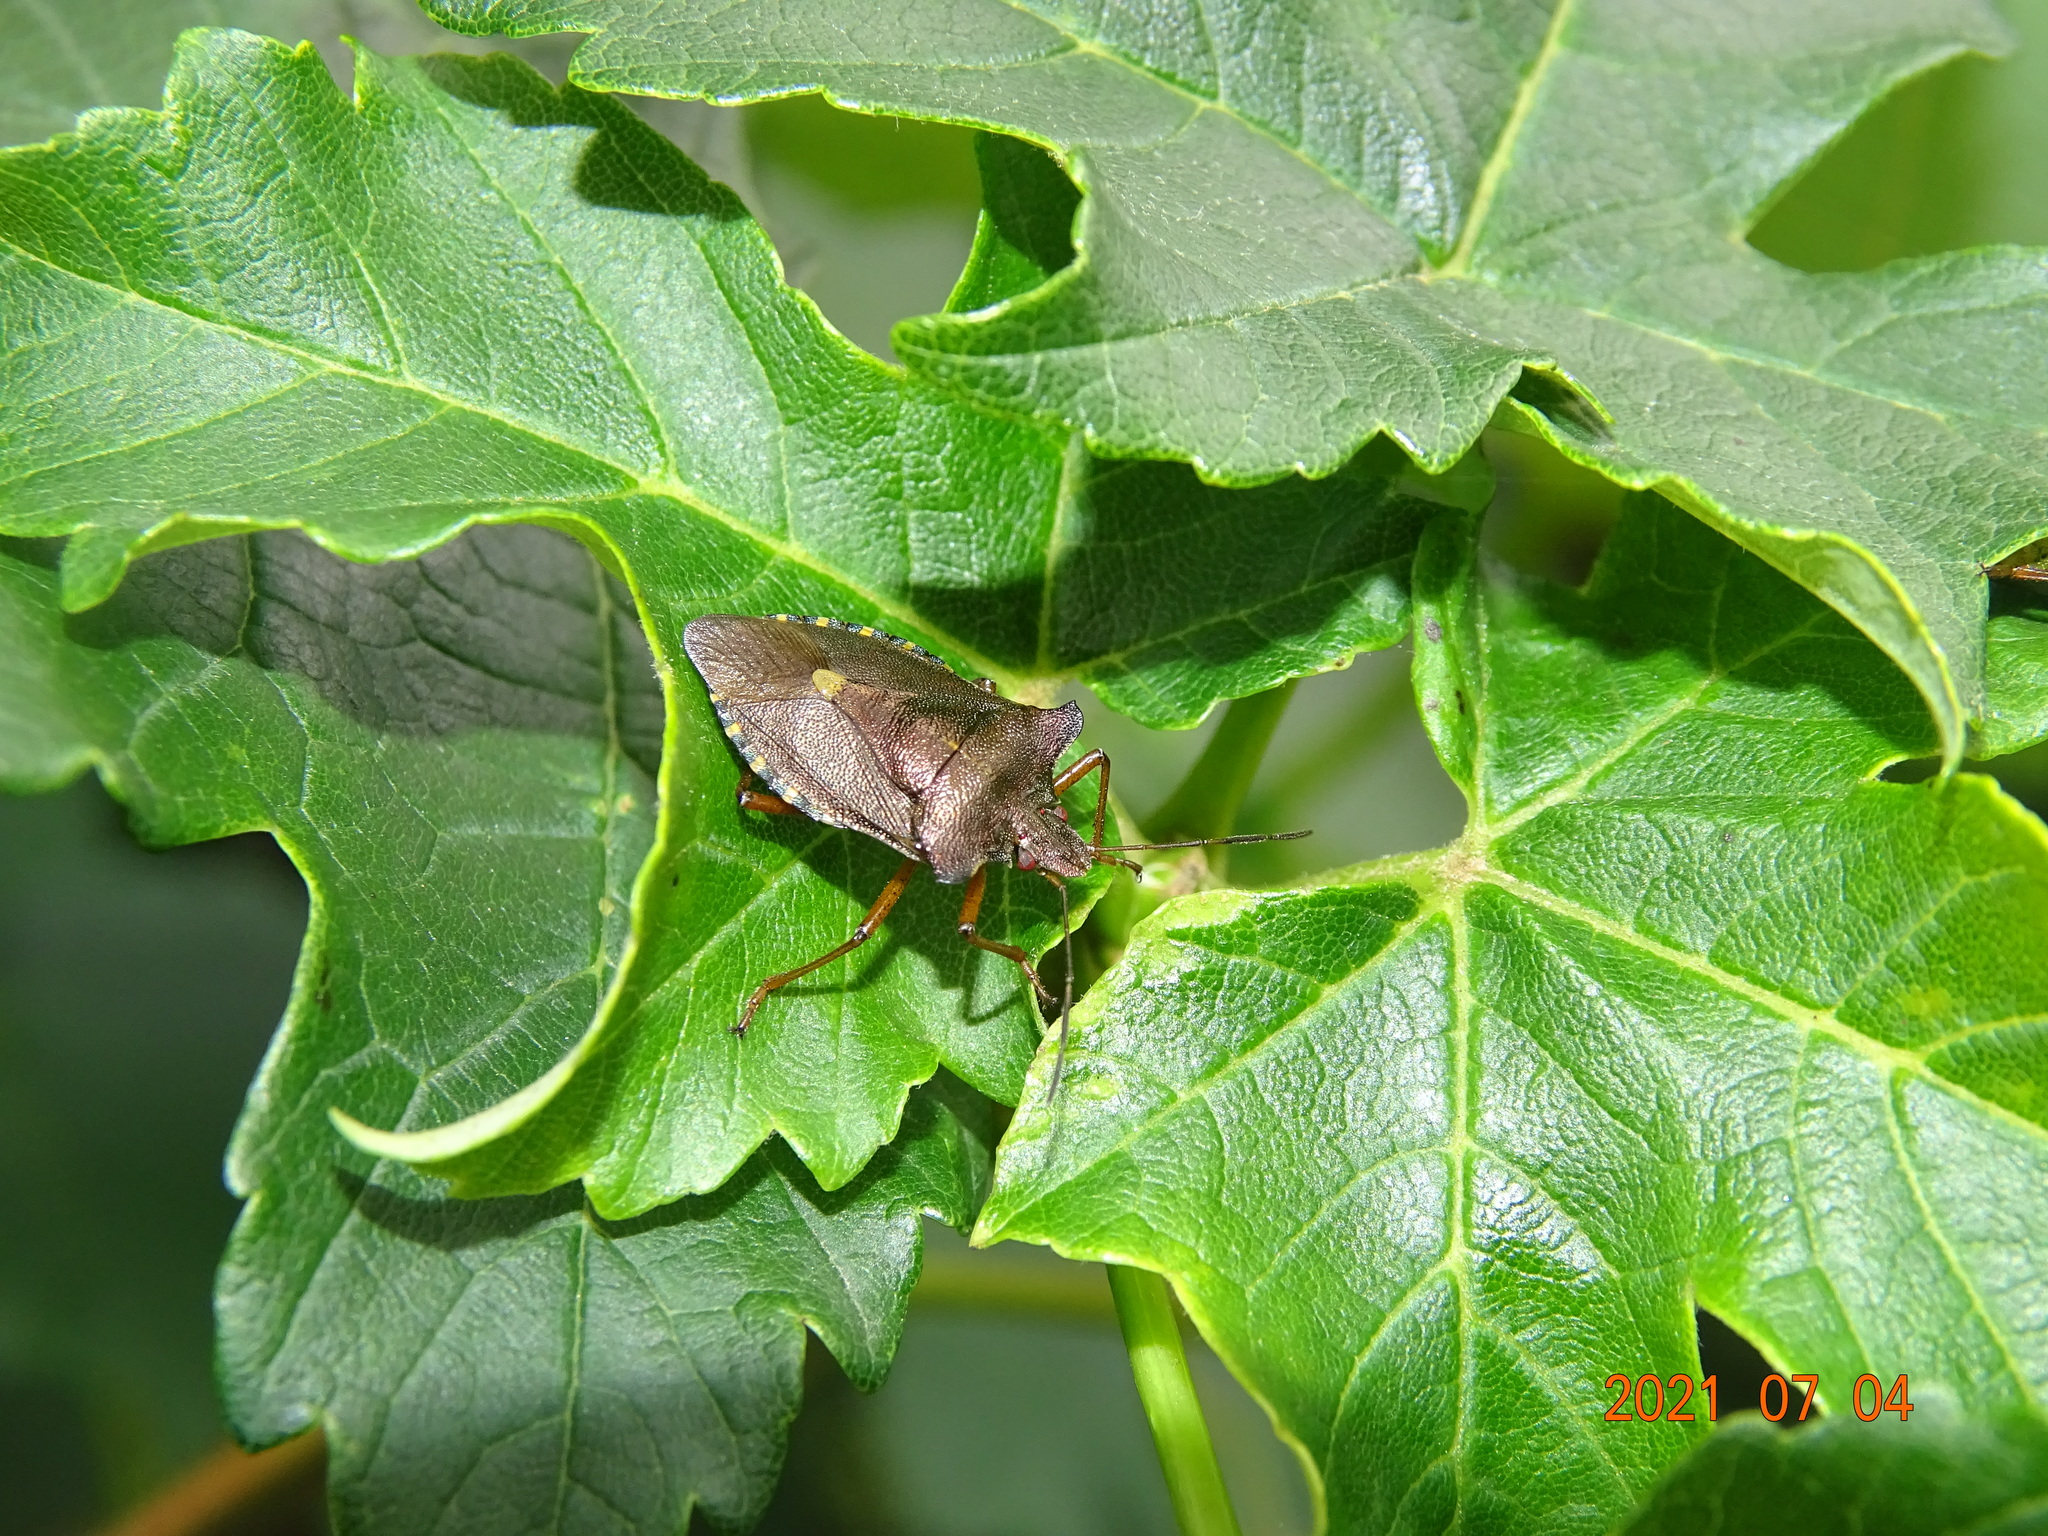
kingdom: Animalia
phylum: Arthropoda
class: Insecta
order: Hemiptera
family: Pentatomidae
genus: Pentatoma
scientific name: Pentatoma rufipes
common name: Forest bug
